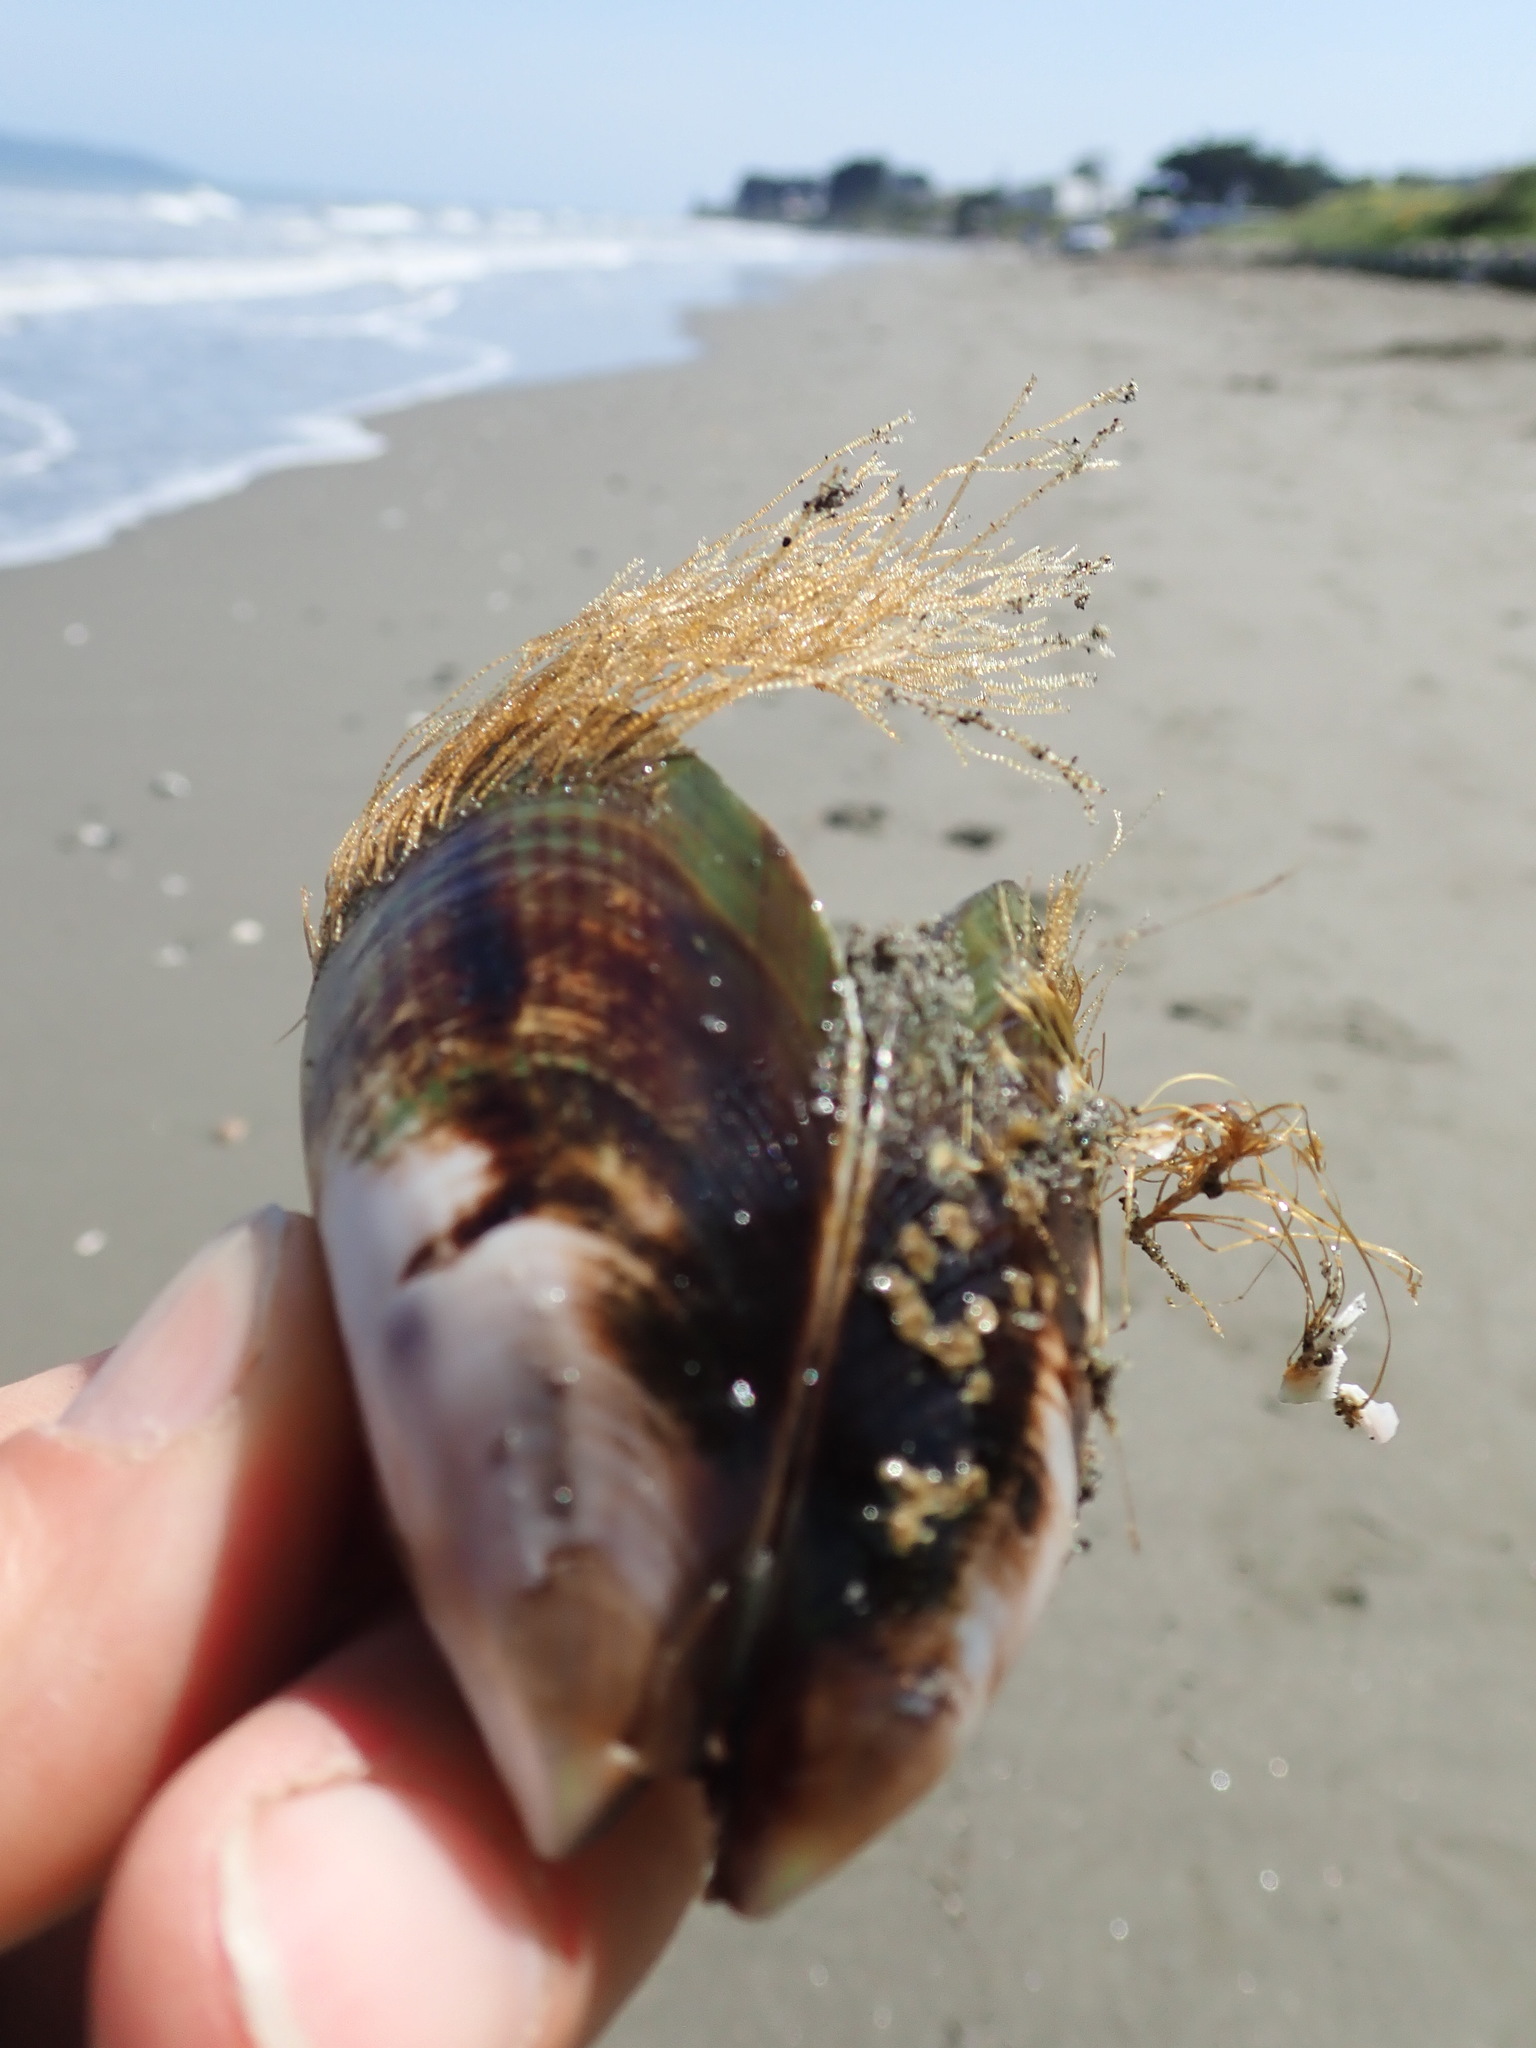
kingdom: Animalia
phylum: Mollusca
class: Bivalvia
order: Mytilida
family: Mytilidae
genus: Perna
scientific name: Perna canaliculus
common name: New zealand greenshelltm
